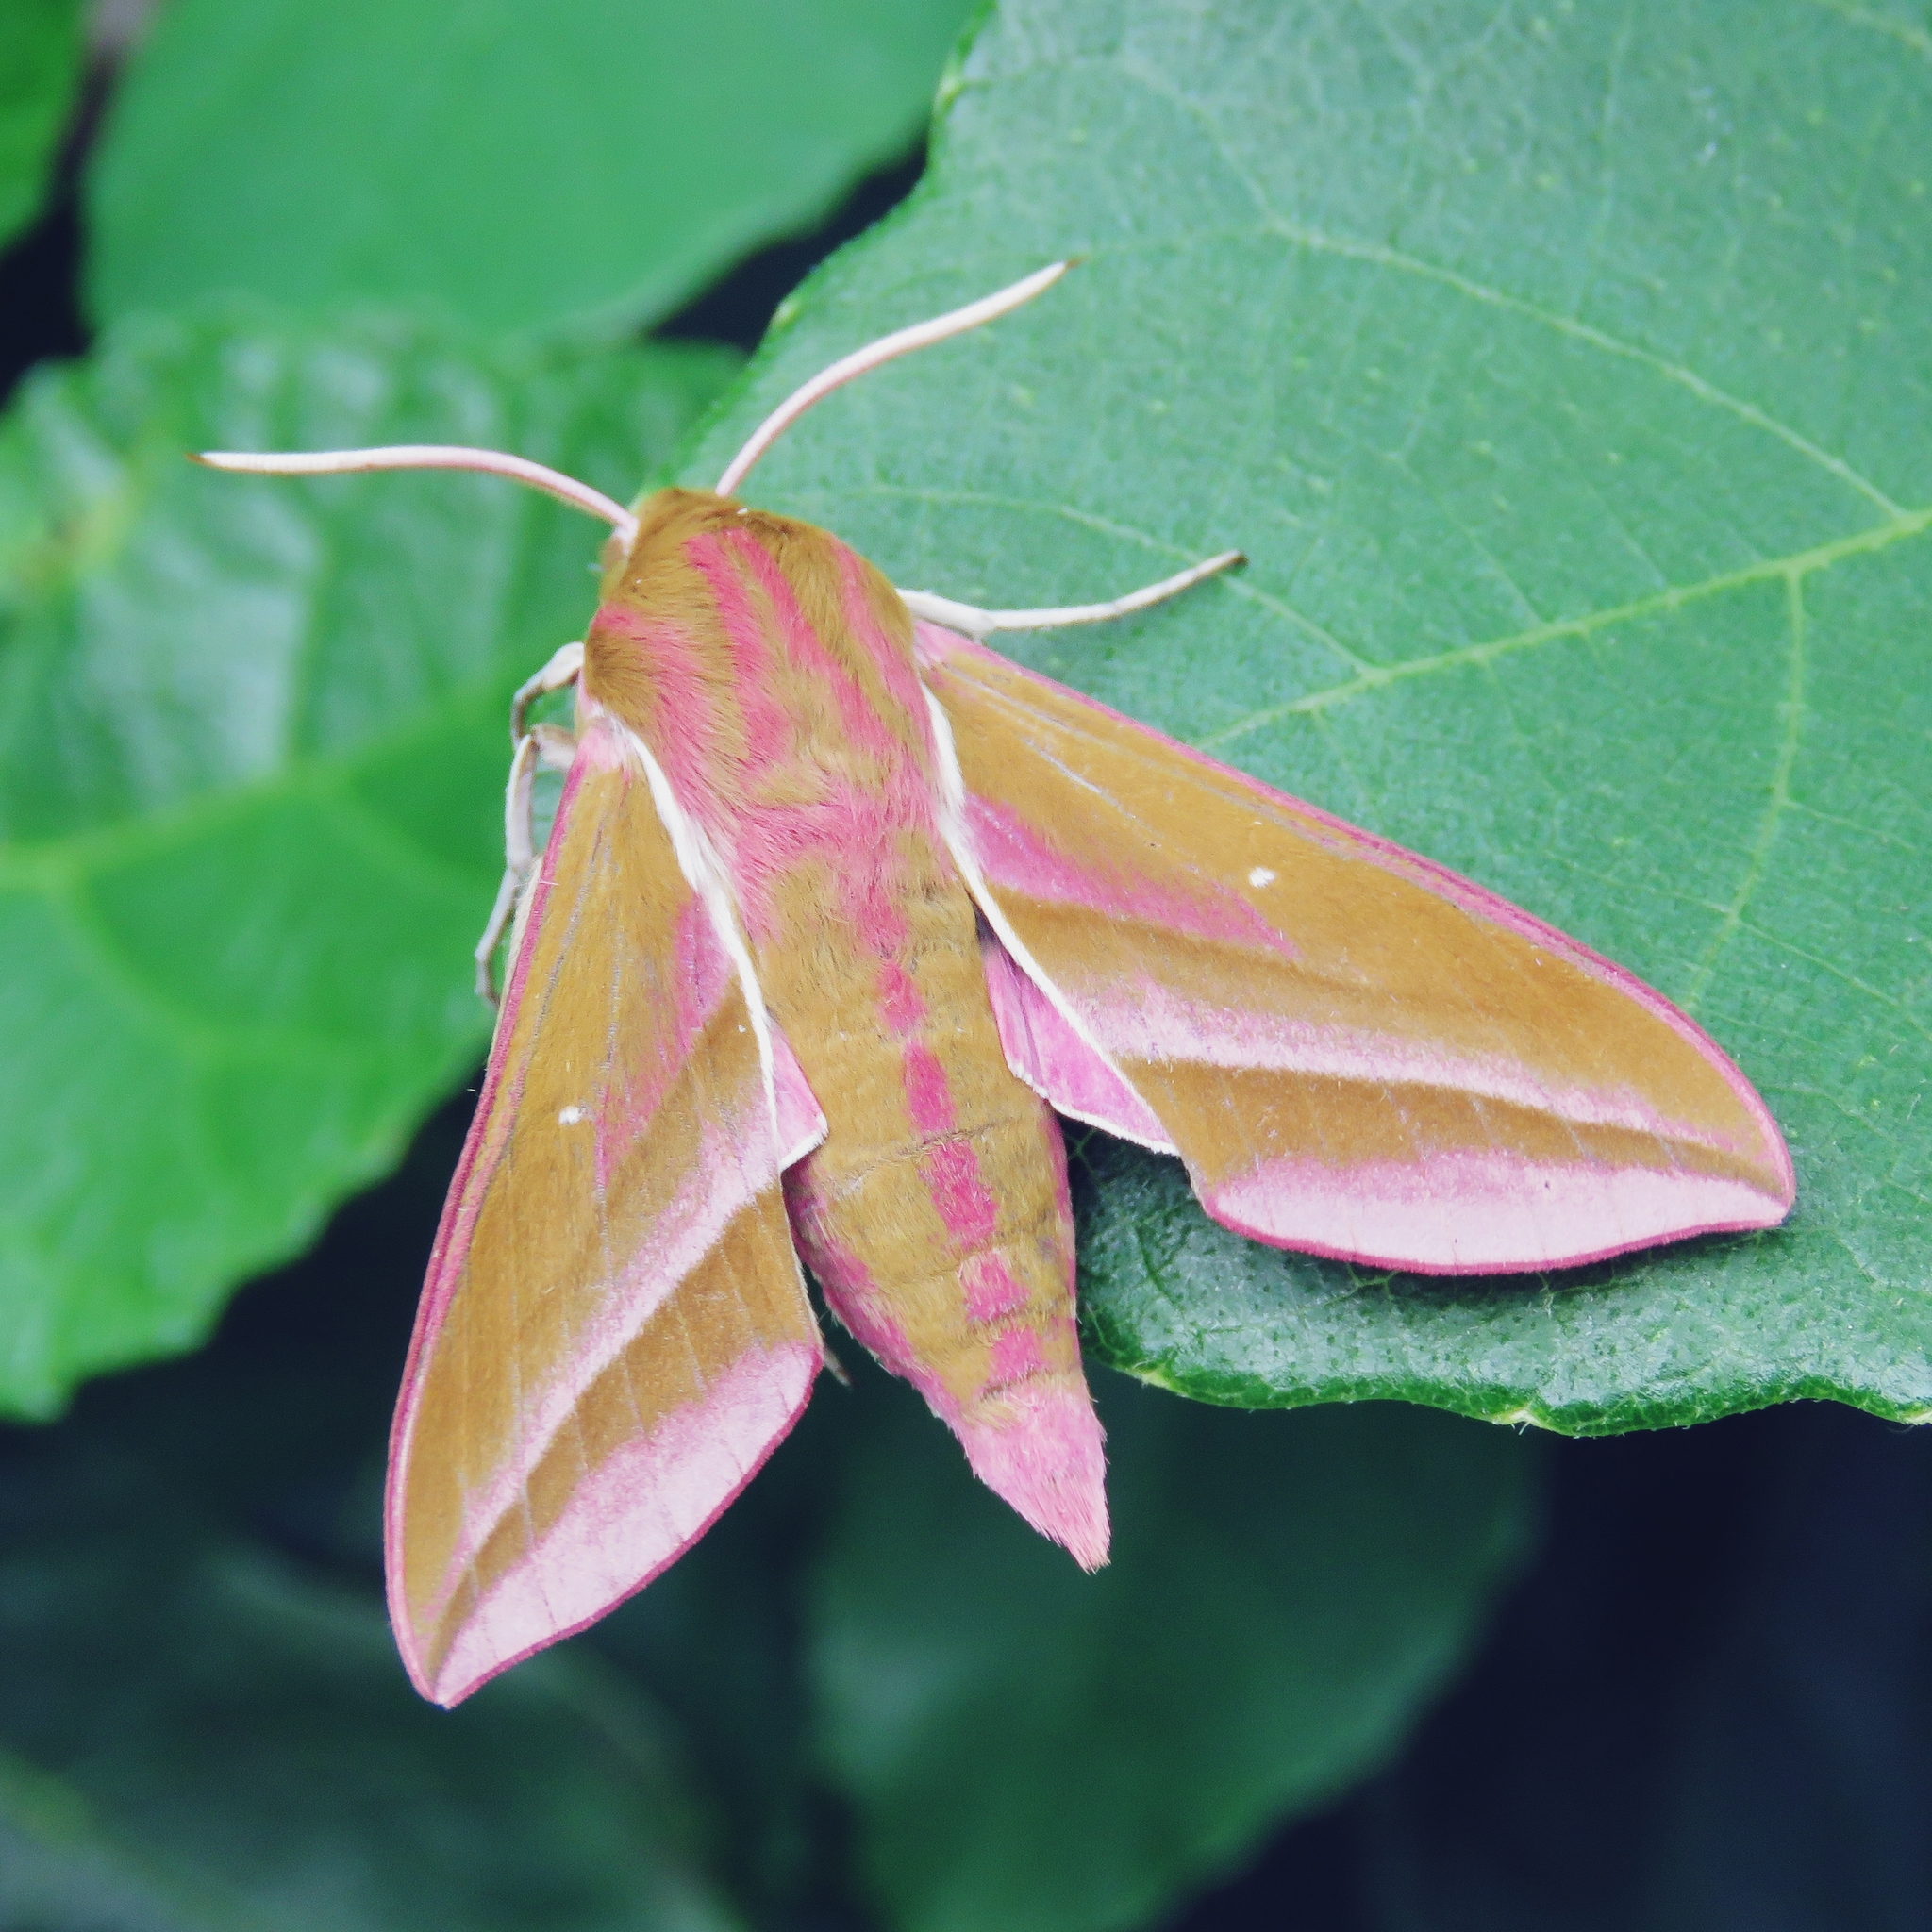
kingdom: Animalia
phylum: Arthropoda
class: Insecta
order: Lepidoptera
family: Sphingidae
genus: Deilephila
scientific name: Deilephila elpenor
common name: Elephant hawk-moth
